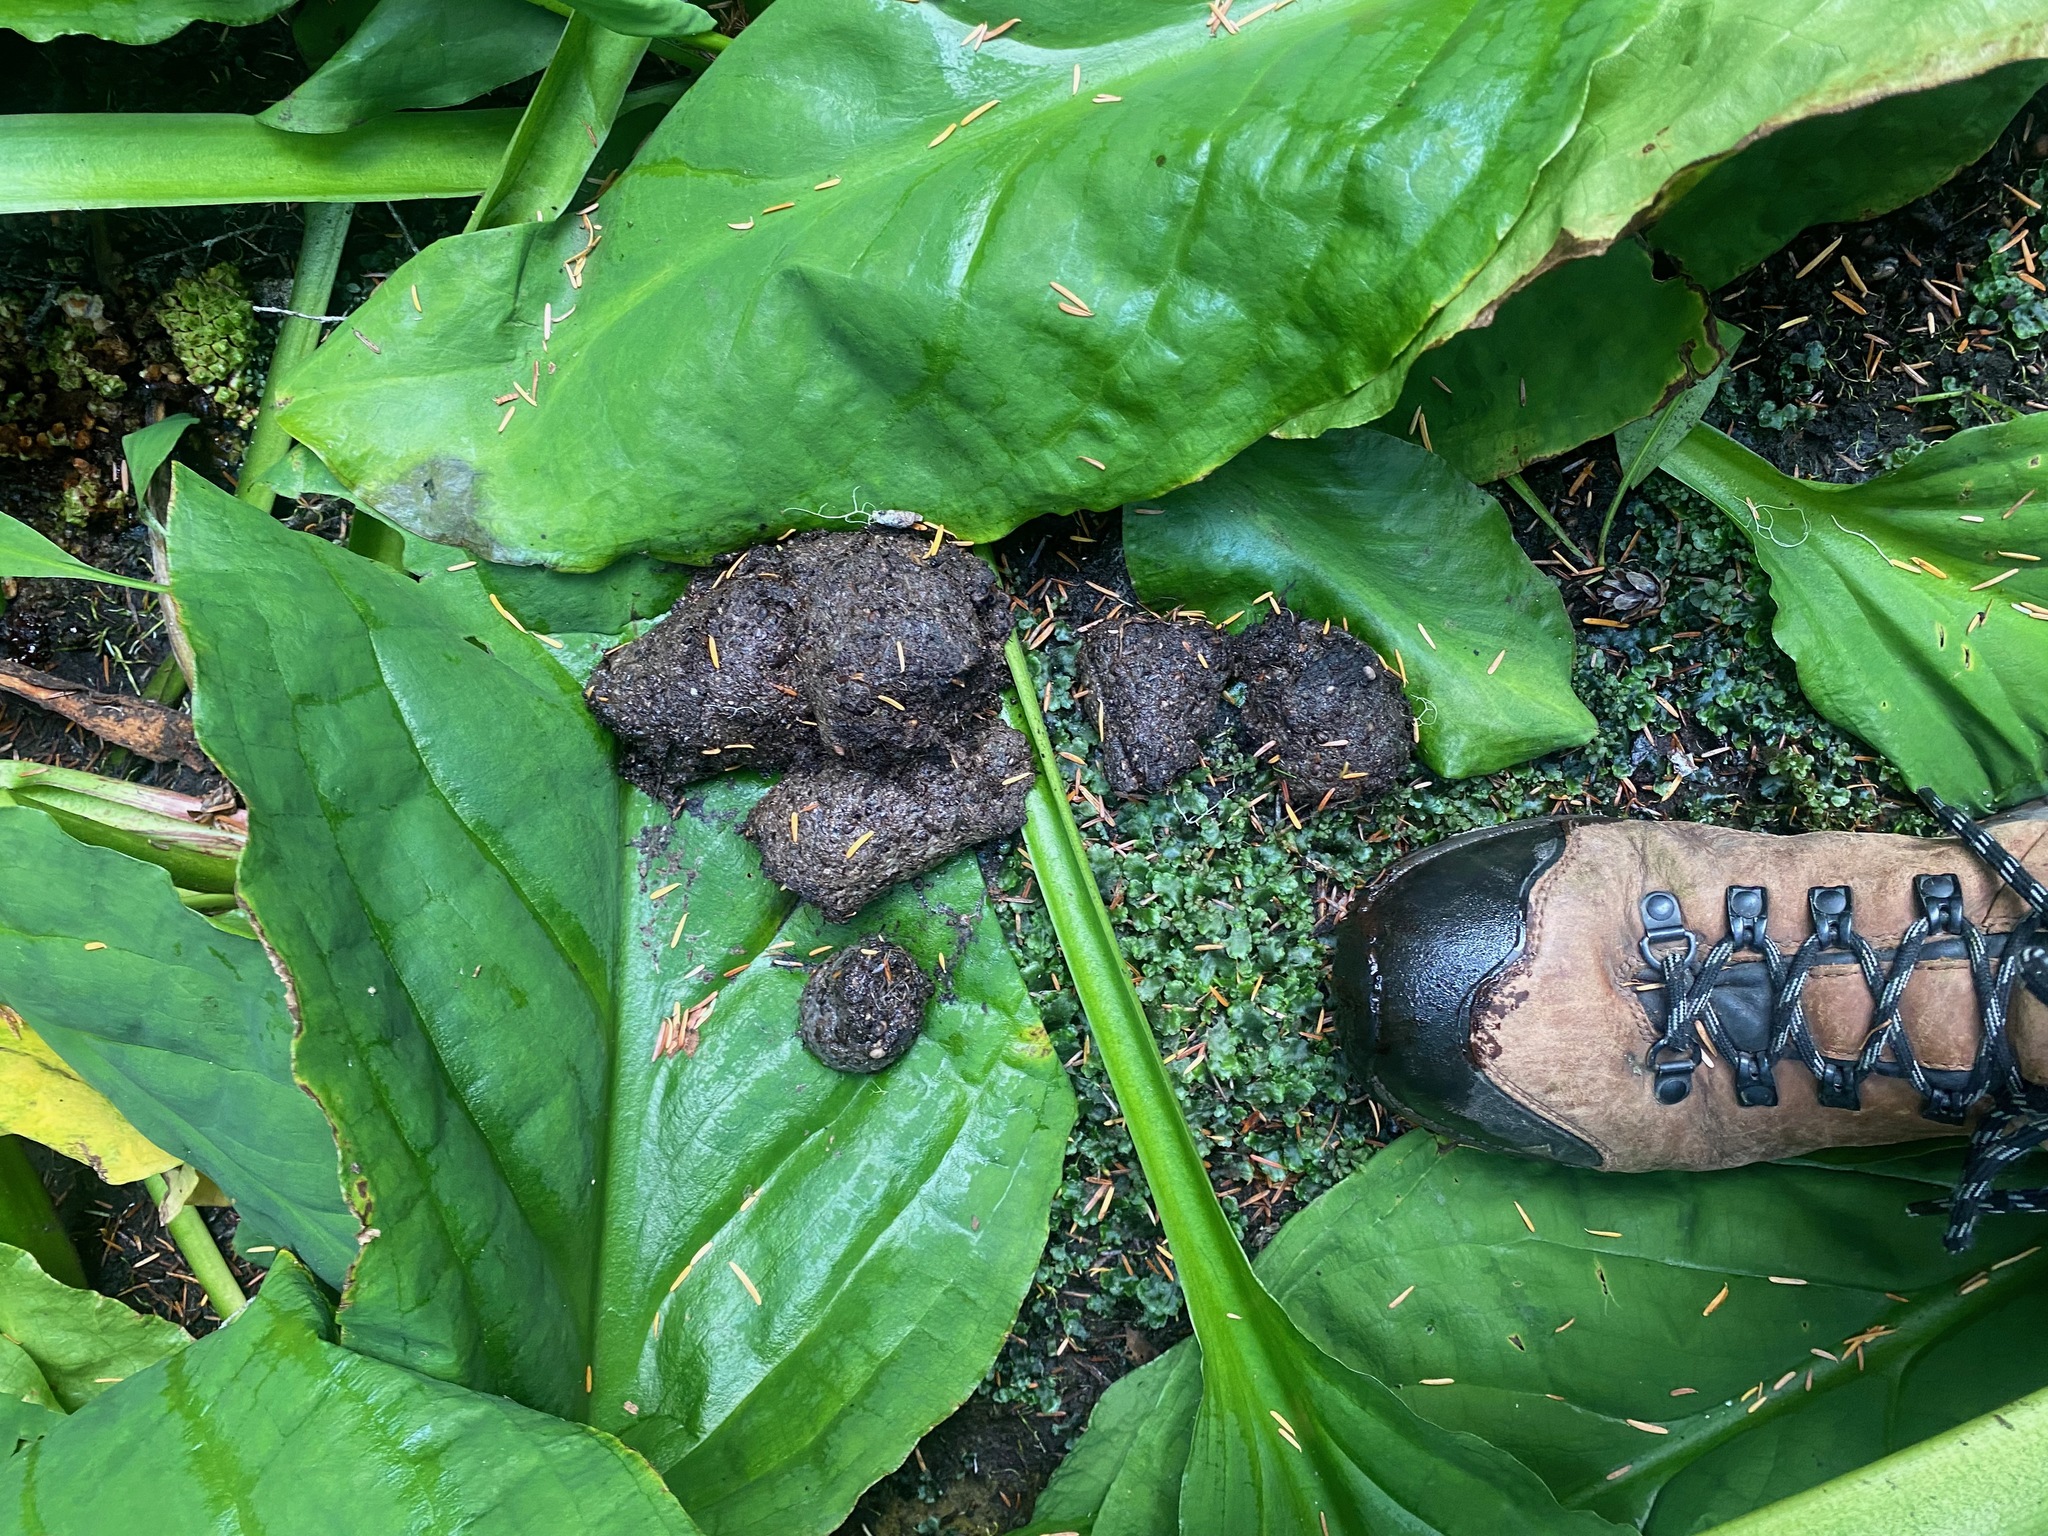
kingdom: Animalia
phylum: Chordata
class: Mammalia
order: Carnivora
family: Ursidae
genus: Ursus
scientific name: Ursus americanus
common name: American black bear
